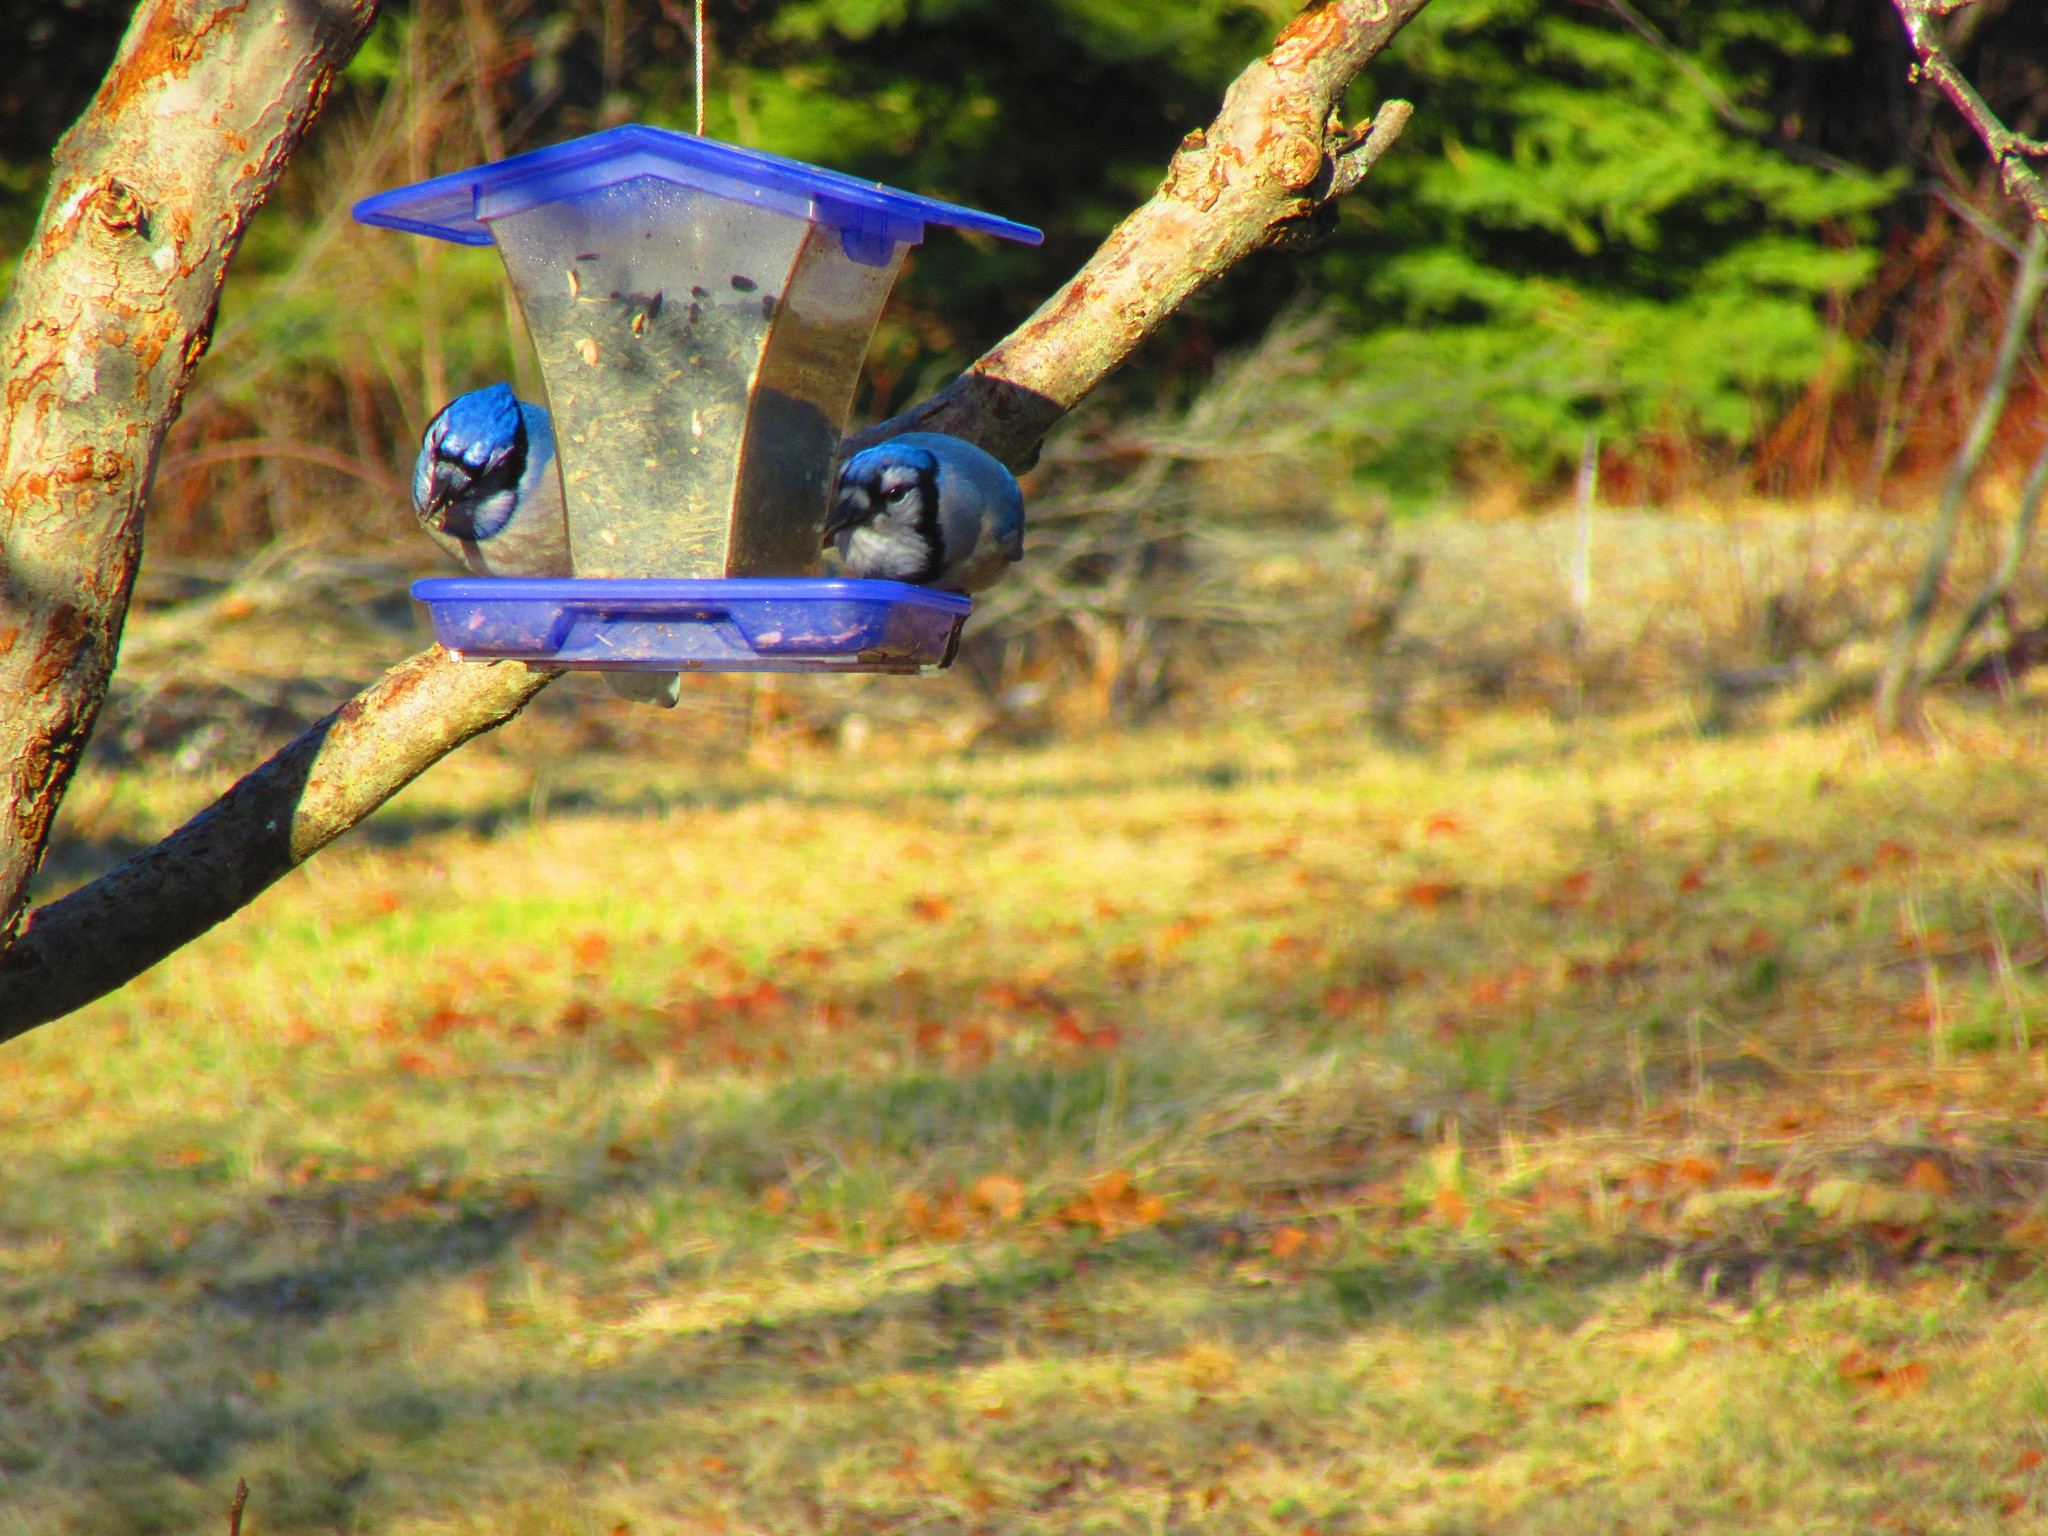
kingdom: Animalia
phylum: Chordata
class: Aves
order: Passeriformes
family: Corvidae
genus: Cyanocitta
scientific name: Cyanocitta cristata
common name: Blue jay
